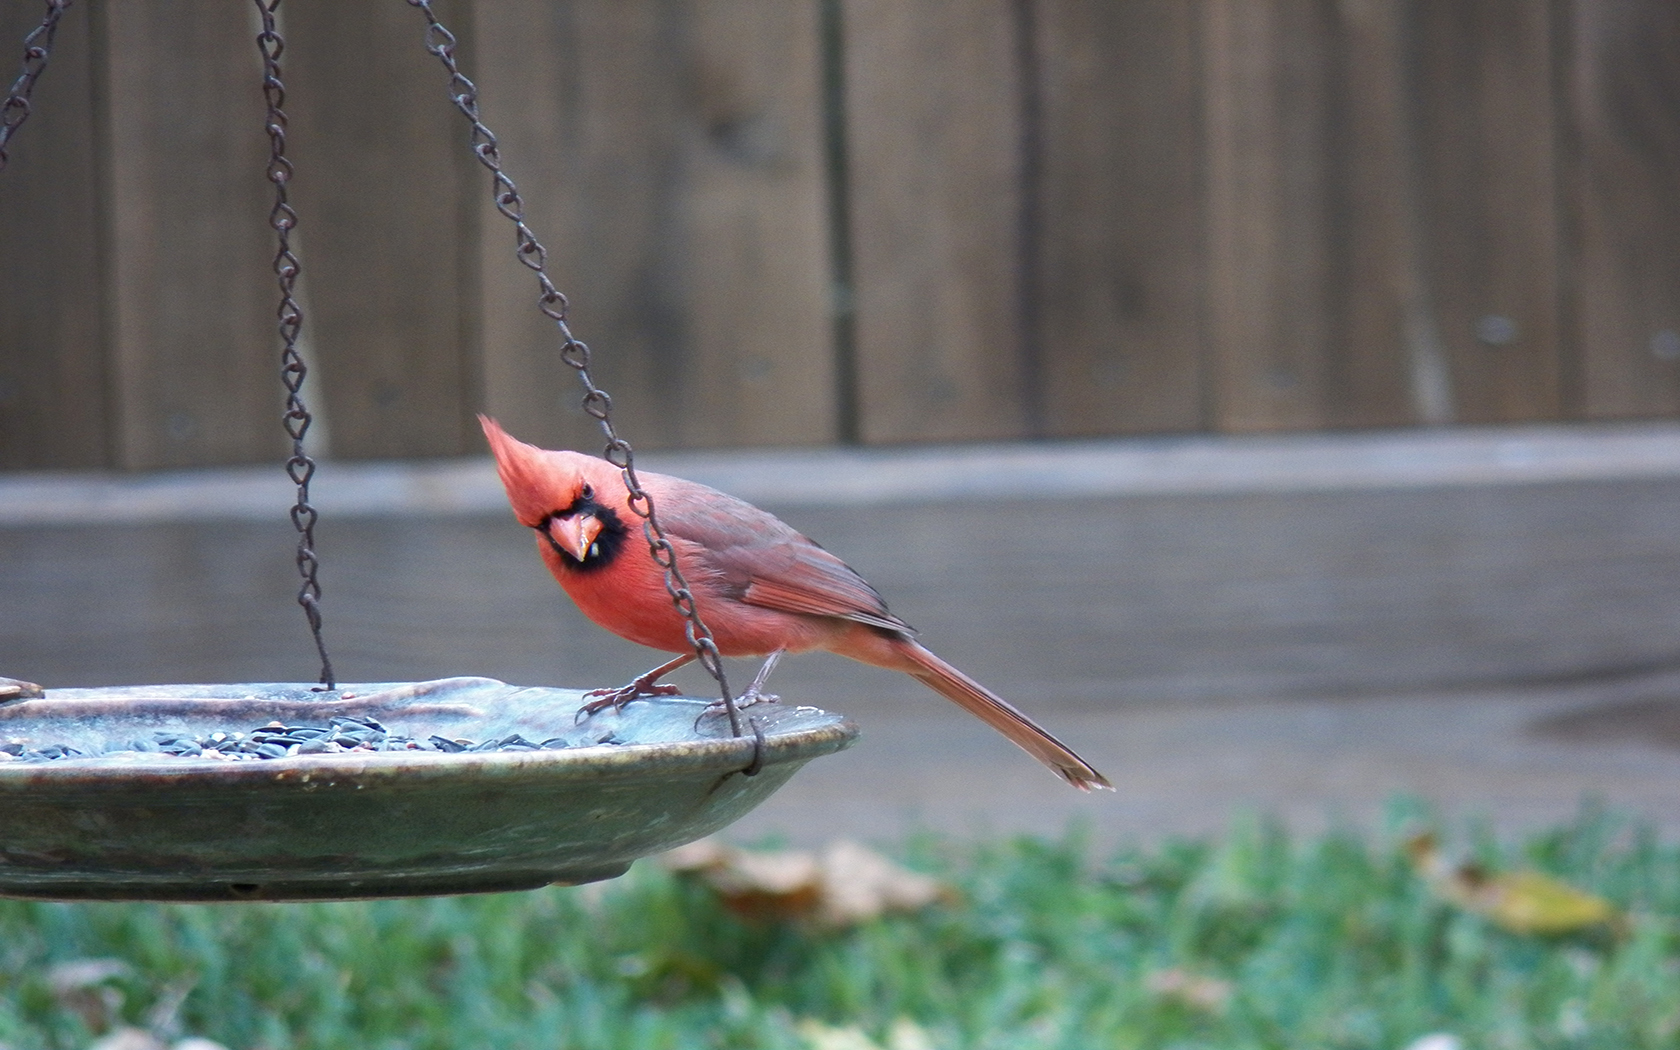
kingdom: Animalia
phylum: Chordata
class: Aves
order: Passeriformes
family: Cardinalidae
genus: Cardinalis
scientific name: Cardinalis cardinalis
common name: Northern cardinal
